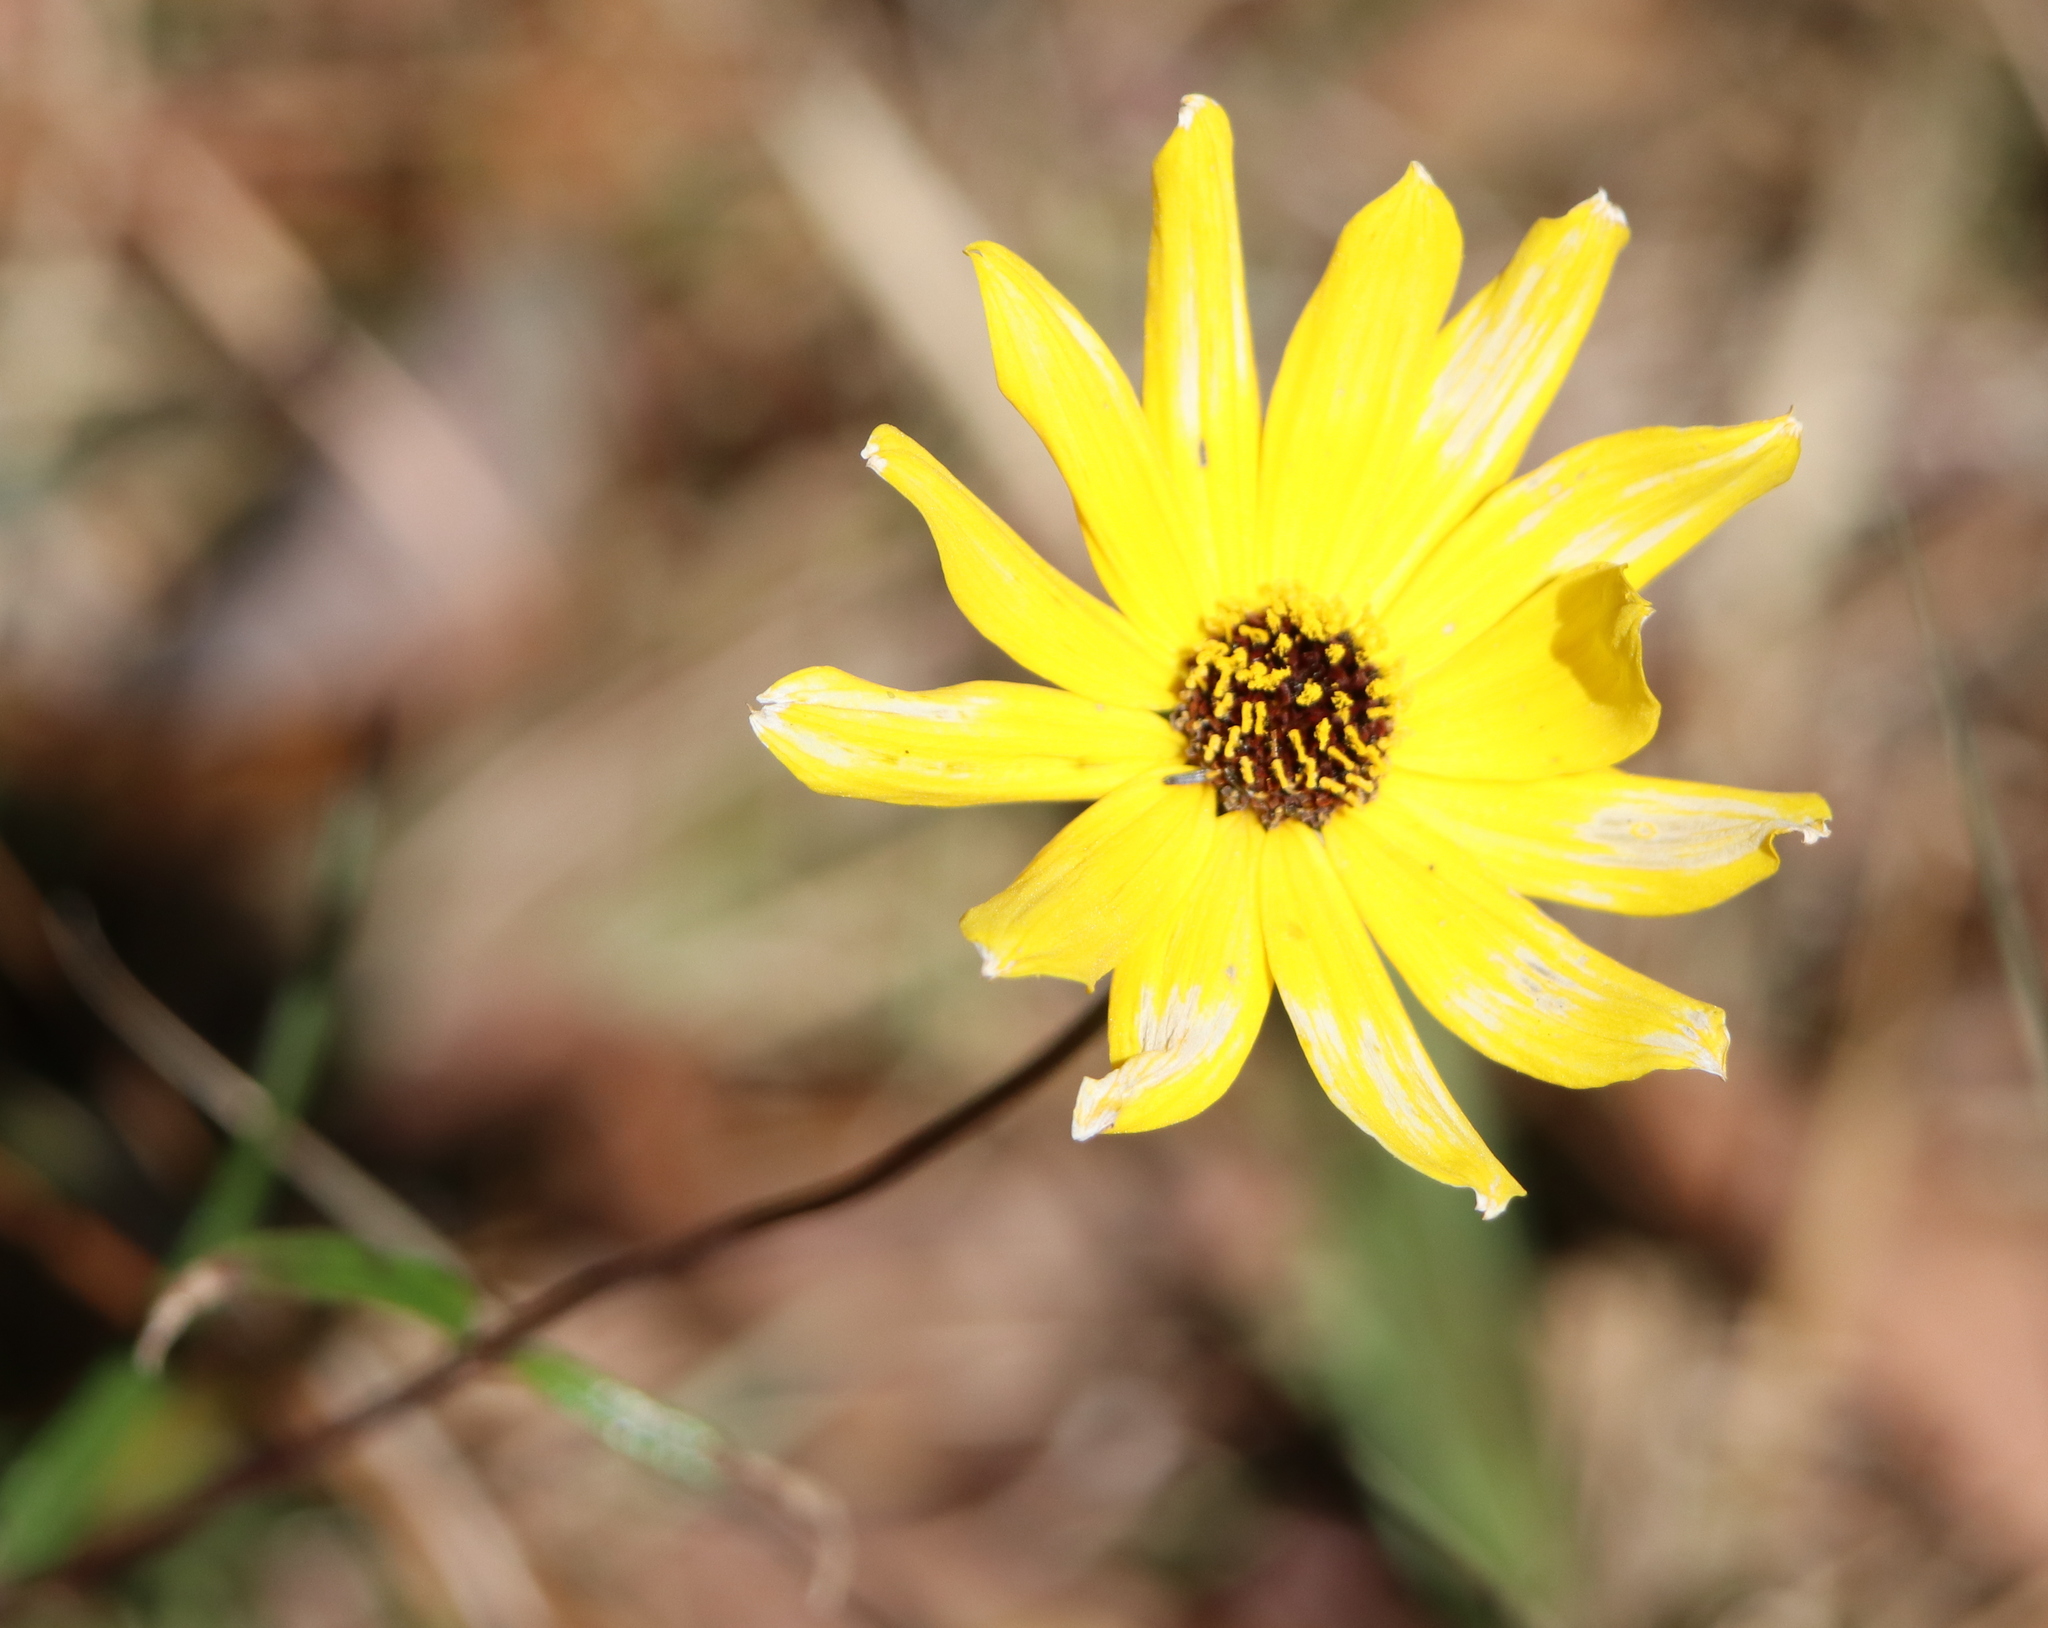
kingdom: Plantae
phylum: Tracheophyta
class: Magnoliopsida
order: Asterales
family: Asteraceae
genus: Helianthus
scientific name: Helianthus angustifolius
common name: Swamp sunflower
